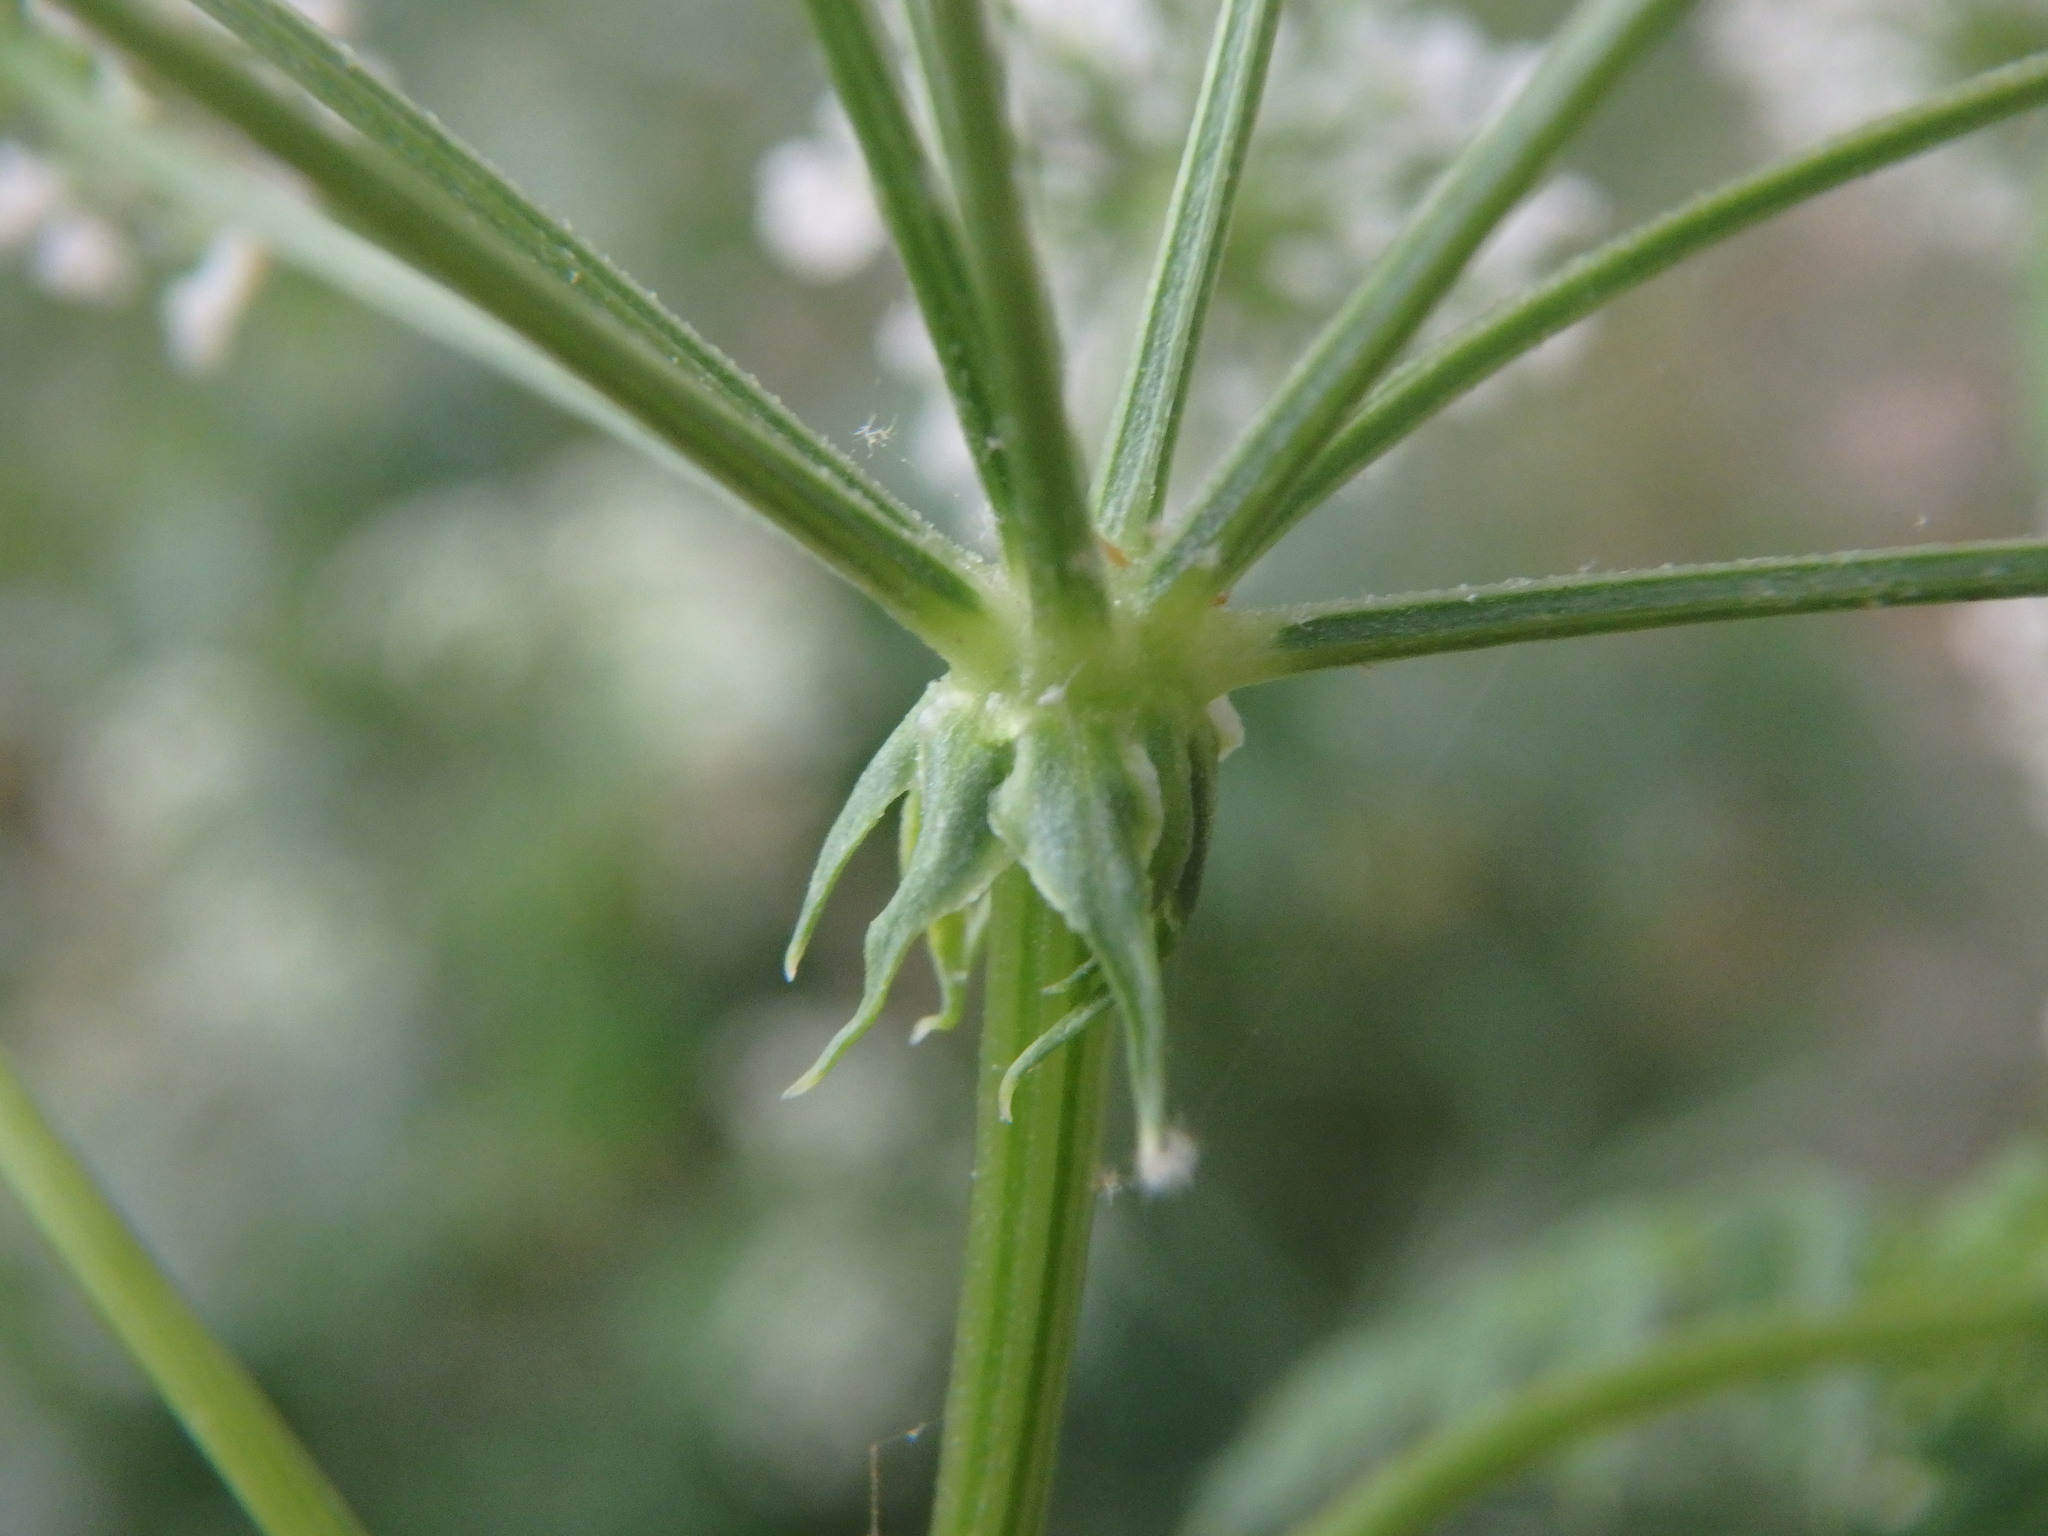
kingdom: Plantae
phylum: Tracheophyta
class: Magnoliopsida
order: Apiales
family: Apiaceae
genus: Conium
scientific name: Conium maculatum
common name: Hemlock
